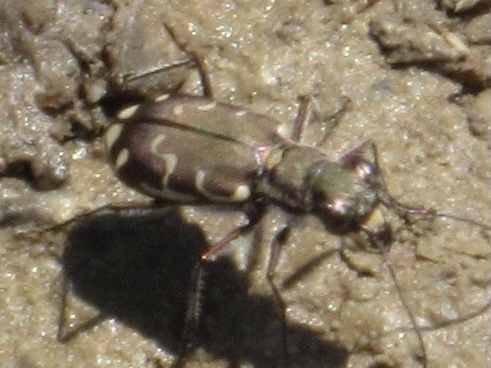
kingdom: Animalia
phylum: Arthropoda
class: Insecta
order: Coleoptera
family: Carabidae
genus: Cicindela
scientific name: Cicindela repanda
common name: Bronzed tiger beetle
